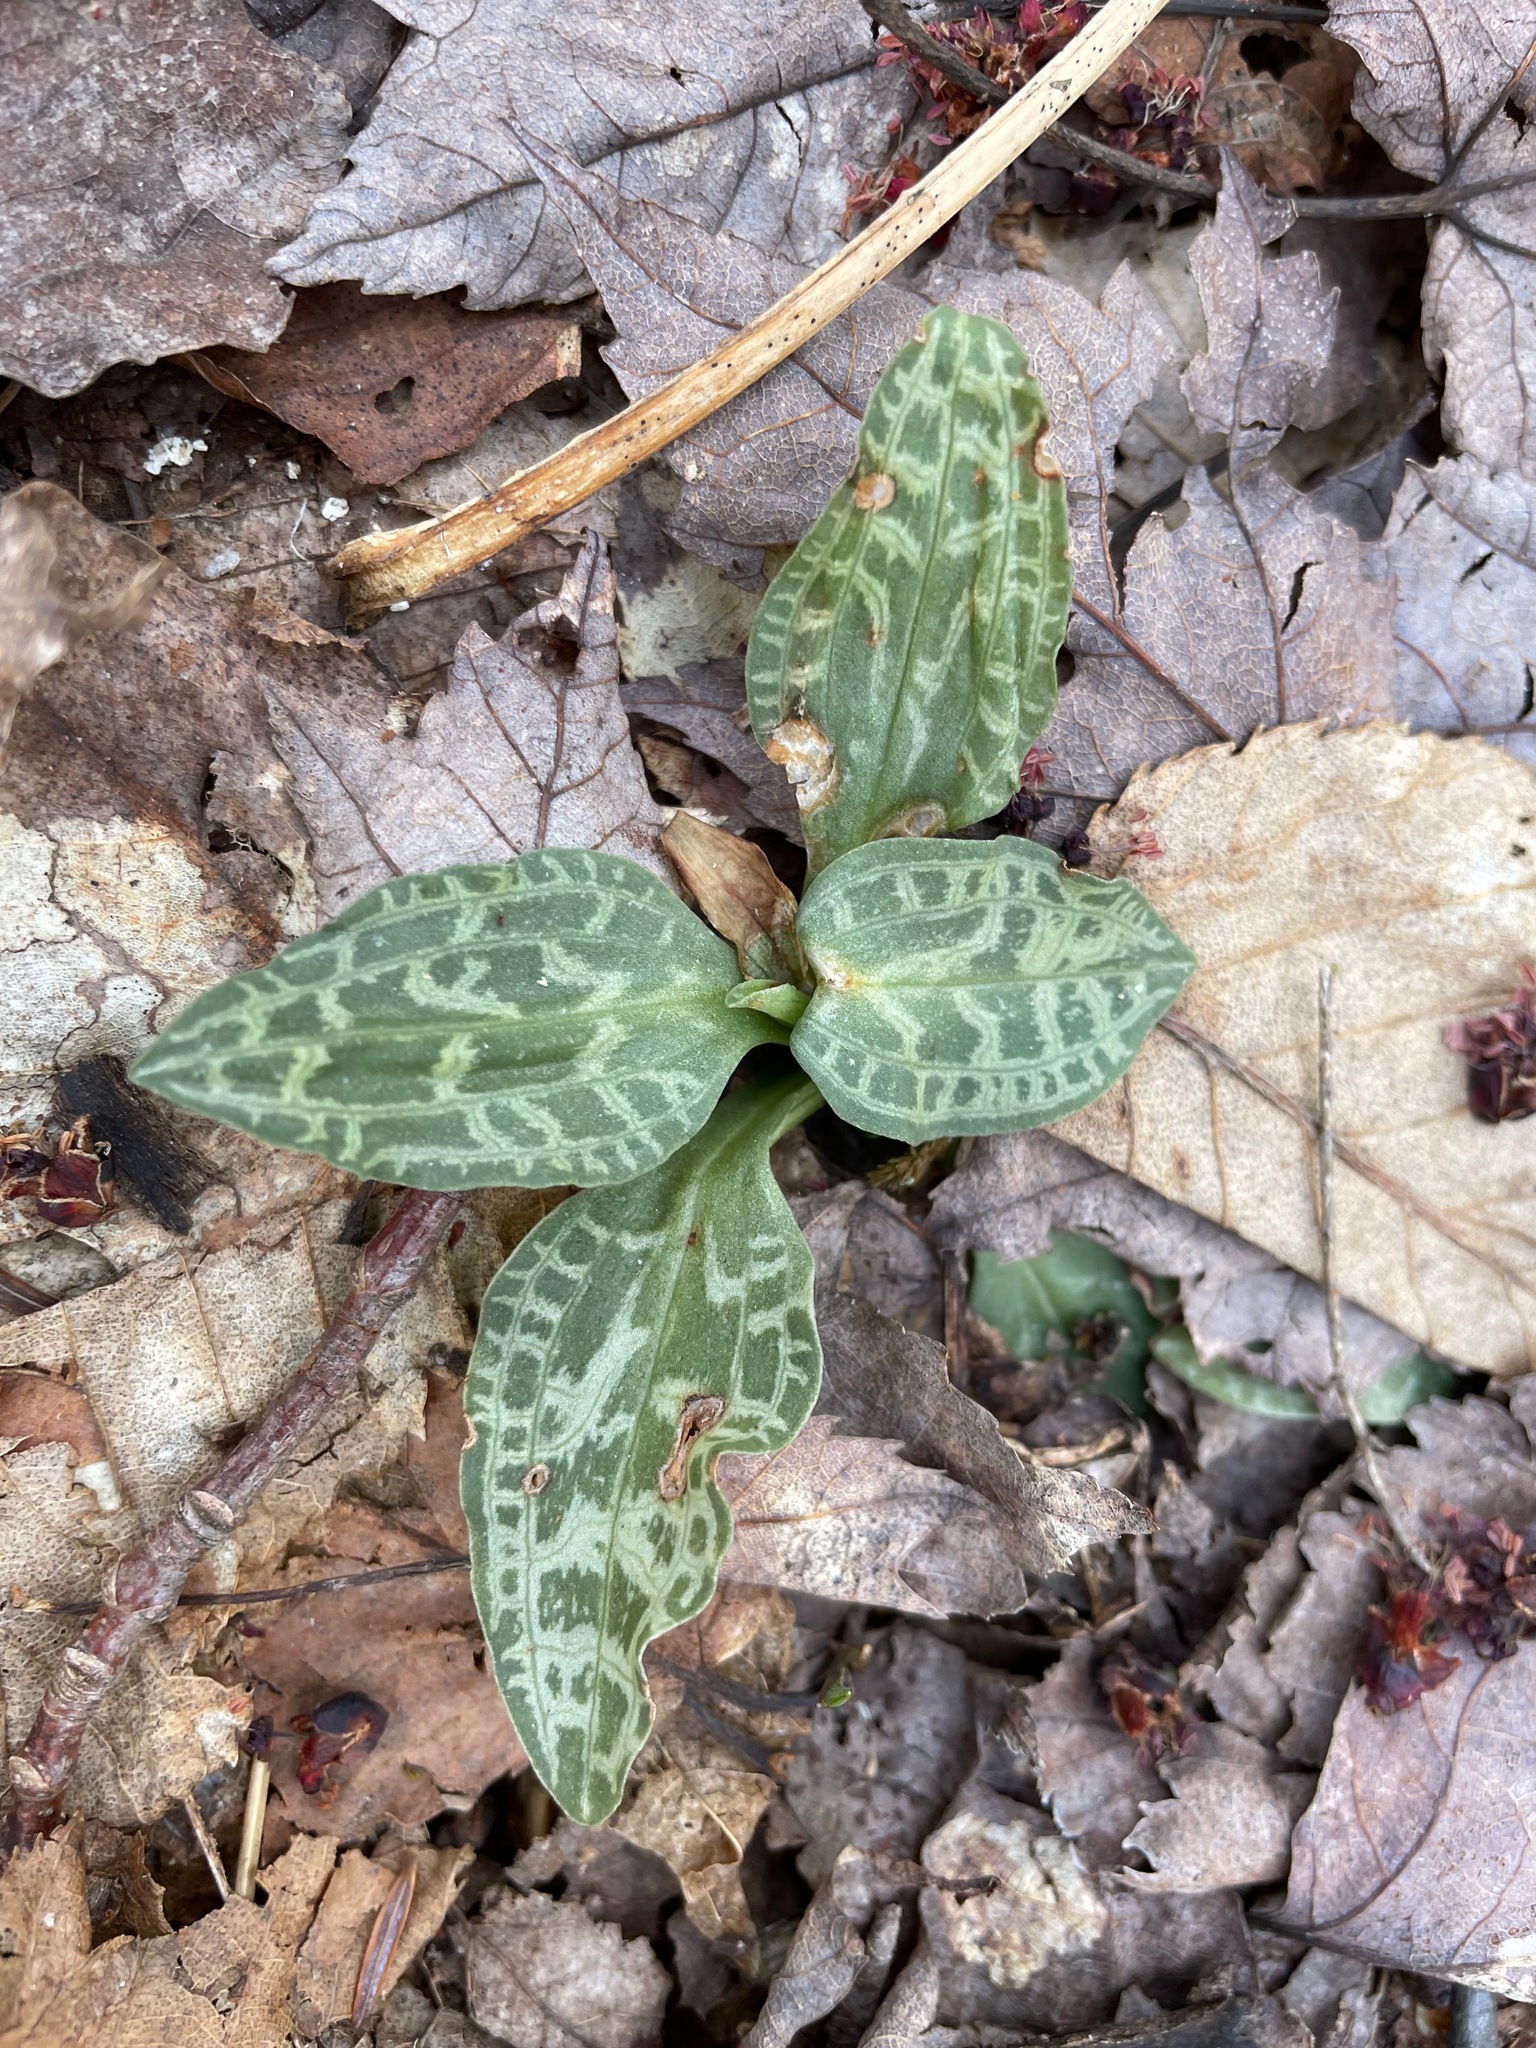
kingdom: Plantae
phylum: Tracheophyta
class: Liliopsida
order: Asparagales
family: Orchidaceae
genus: Goodyera
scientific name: Goodyera tesselata
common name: Checkered rattlesnake-plantain
